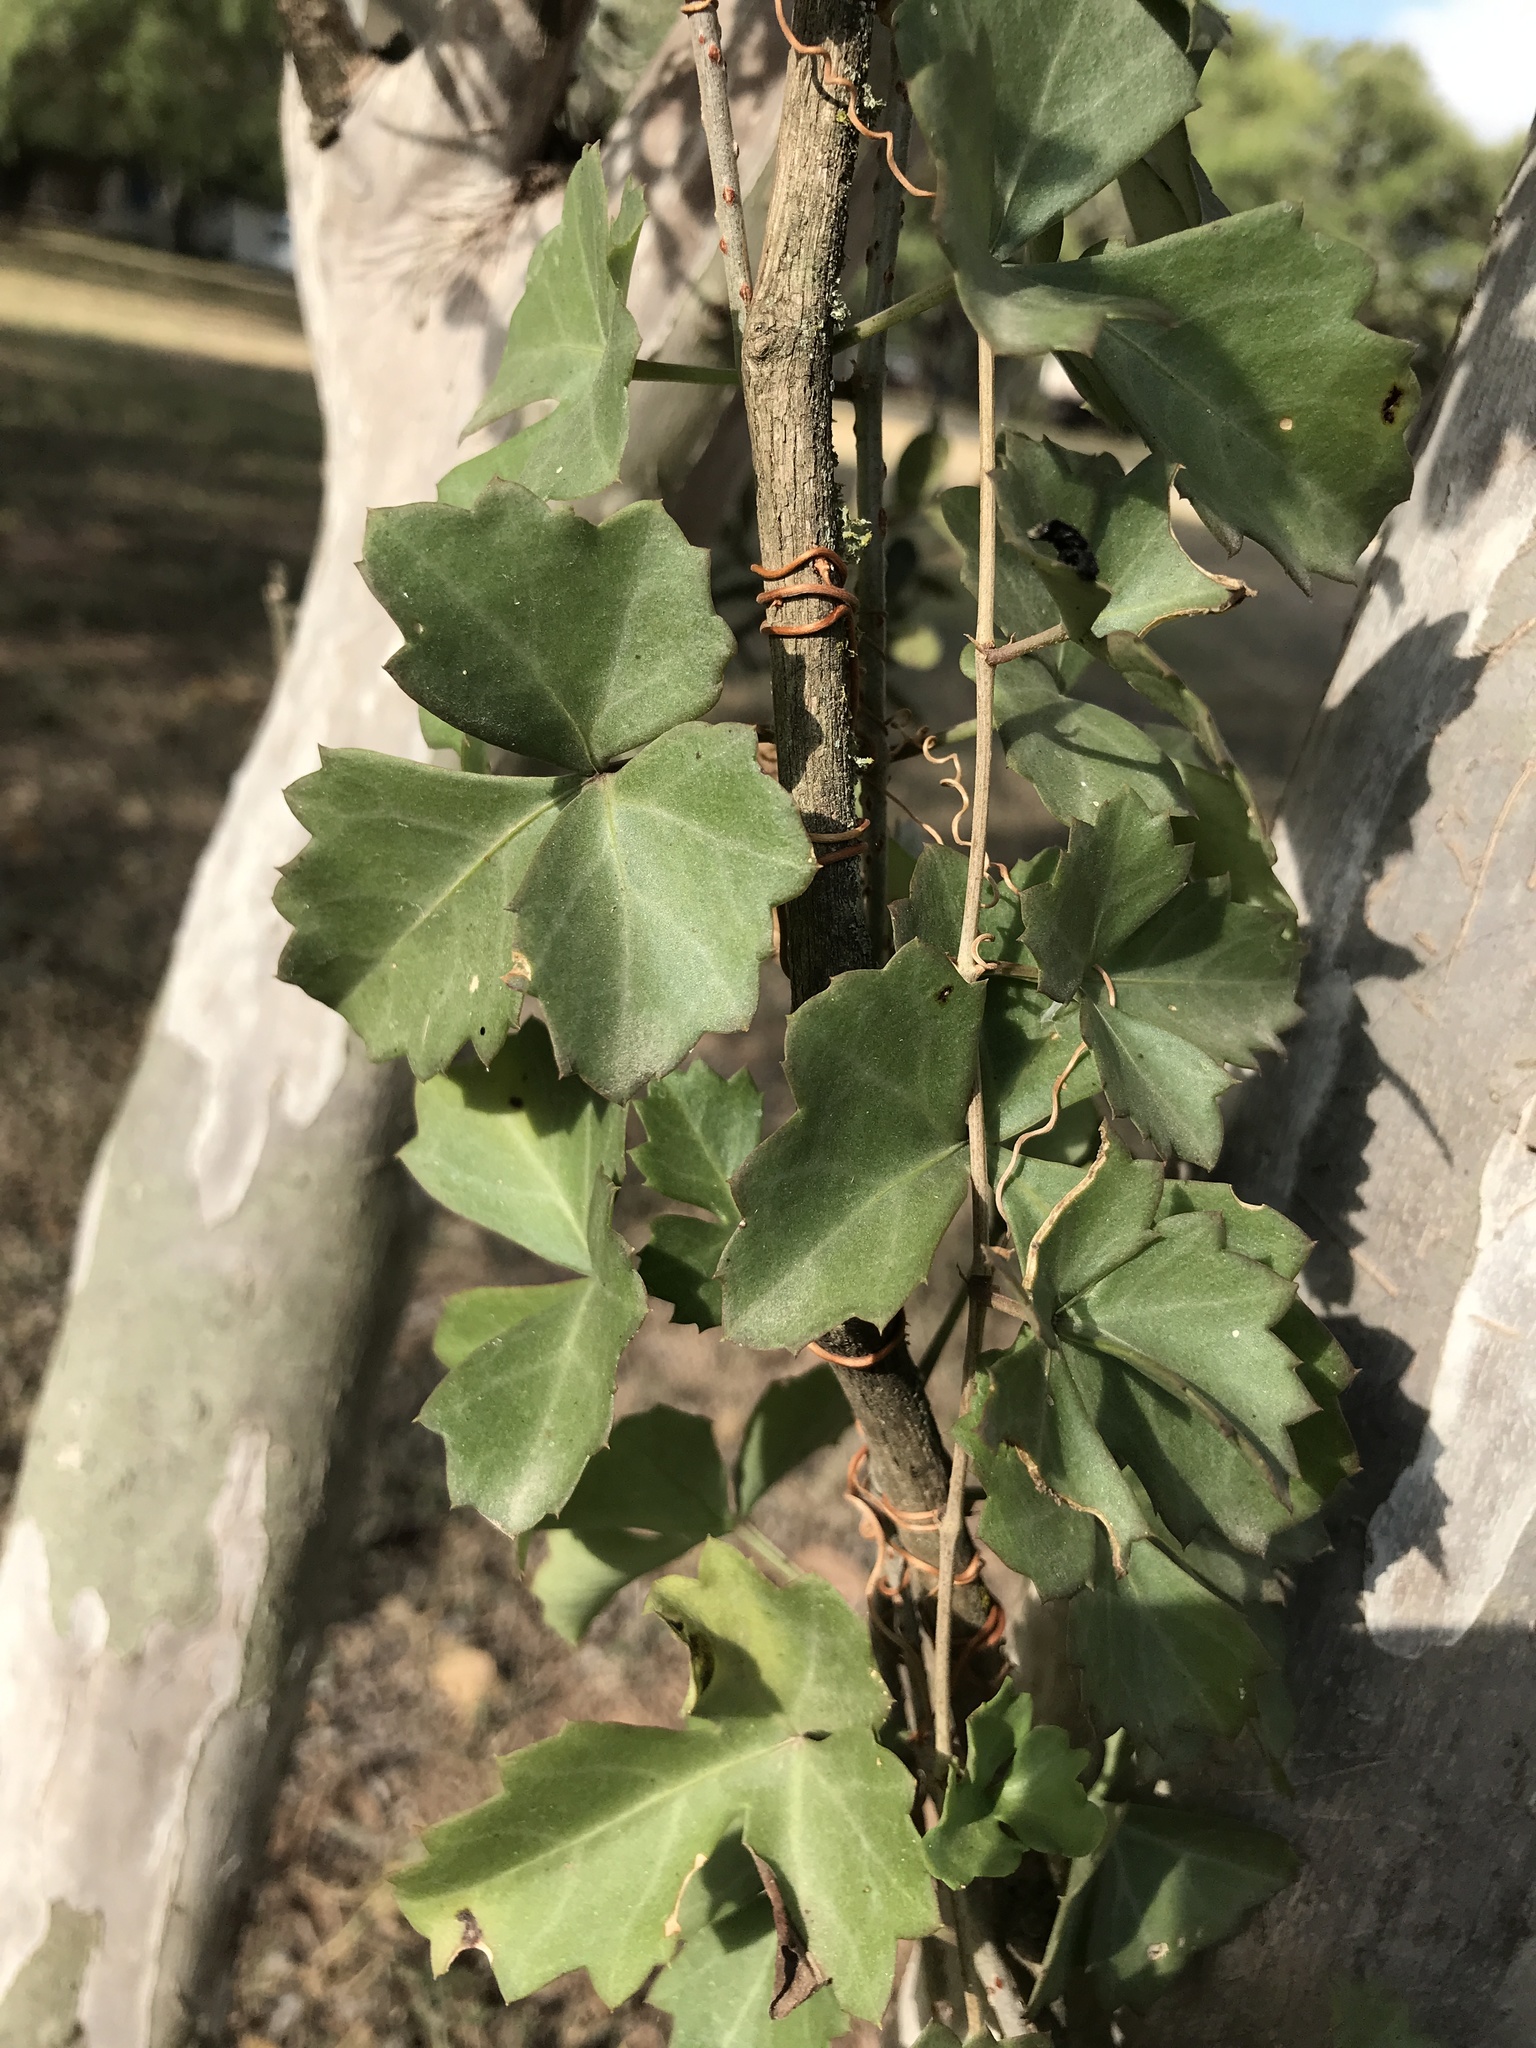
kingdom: Plantae
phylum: Tracheophyta
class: Magnoliopsida
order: Vitales
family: Vitaceae
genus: Cissus
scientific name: Cissus trifoliata
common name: Vine-sorrel
